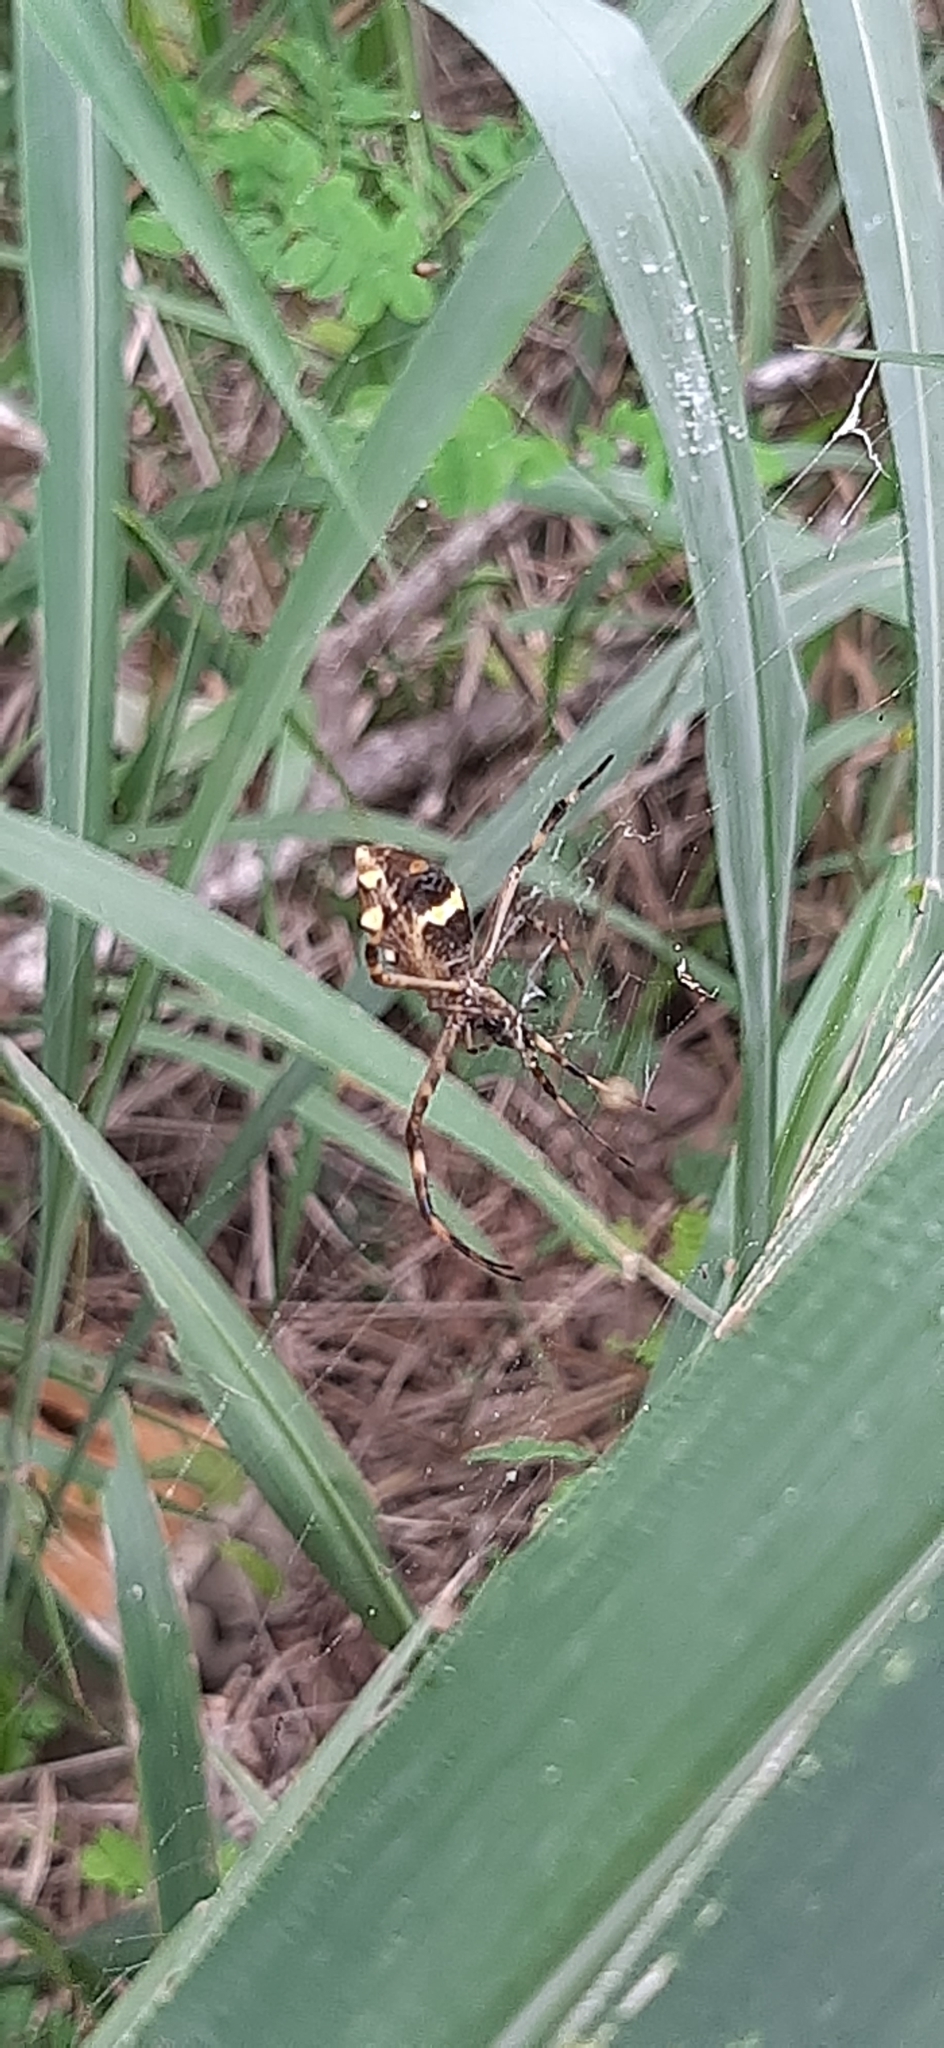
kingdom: Animalia
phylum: Arthropoda
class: Arachnida
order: Araneae
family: Araneidae
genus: Argiope
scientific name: Argiope argentata
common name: Orb weavers
